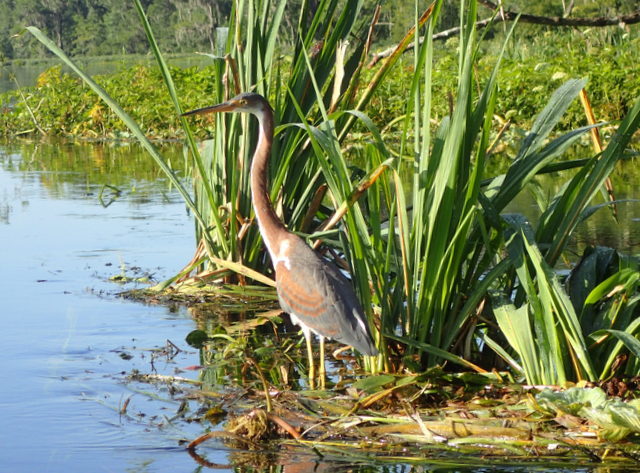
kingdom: Animalia
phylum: Chordata
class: Aves
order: Pelecaniformes
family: Ardeidae
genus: Egretta
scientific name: Egretta tricolor
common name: Tricolored heron
